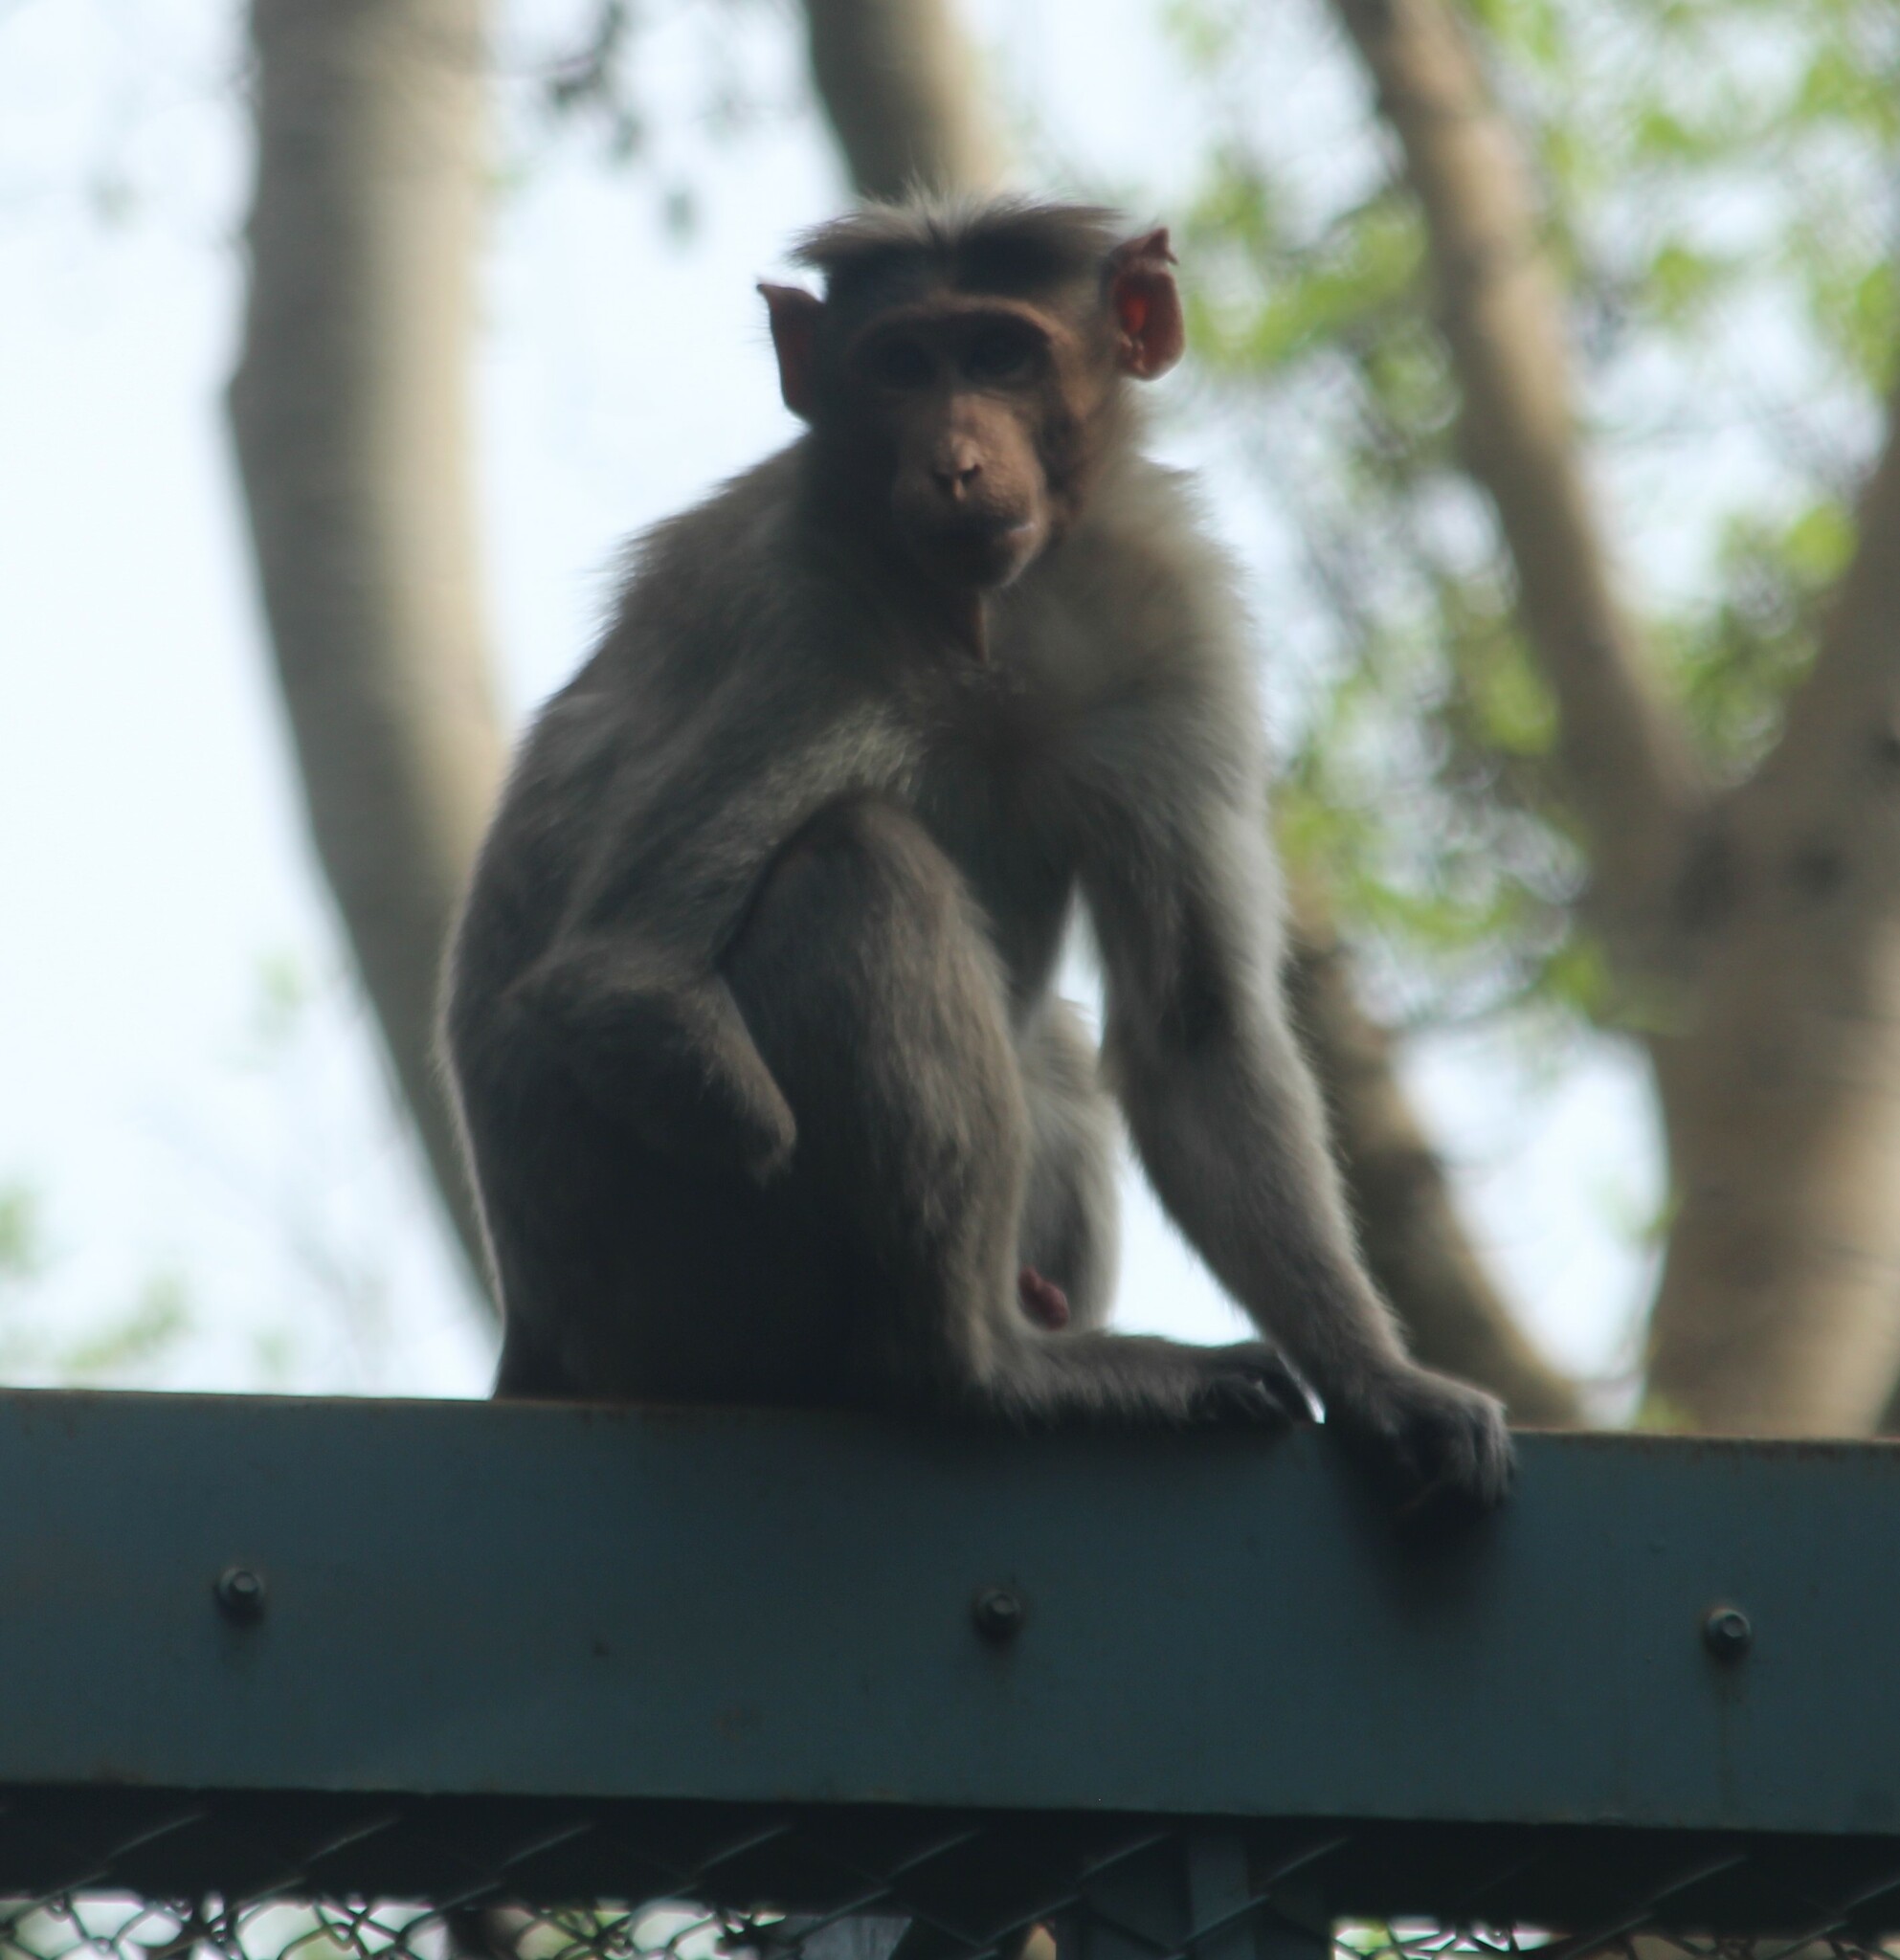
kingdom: Animalia
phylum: Chordata
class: Mammalia
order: Primates
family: Cercopithecidae
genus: Macaca
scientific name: Macaca radiata
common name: Bonnet macaque
